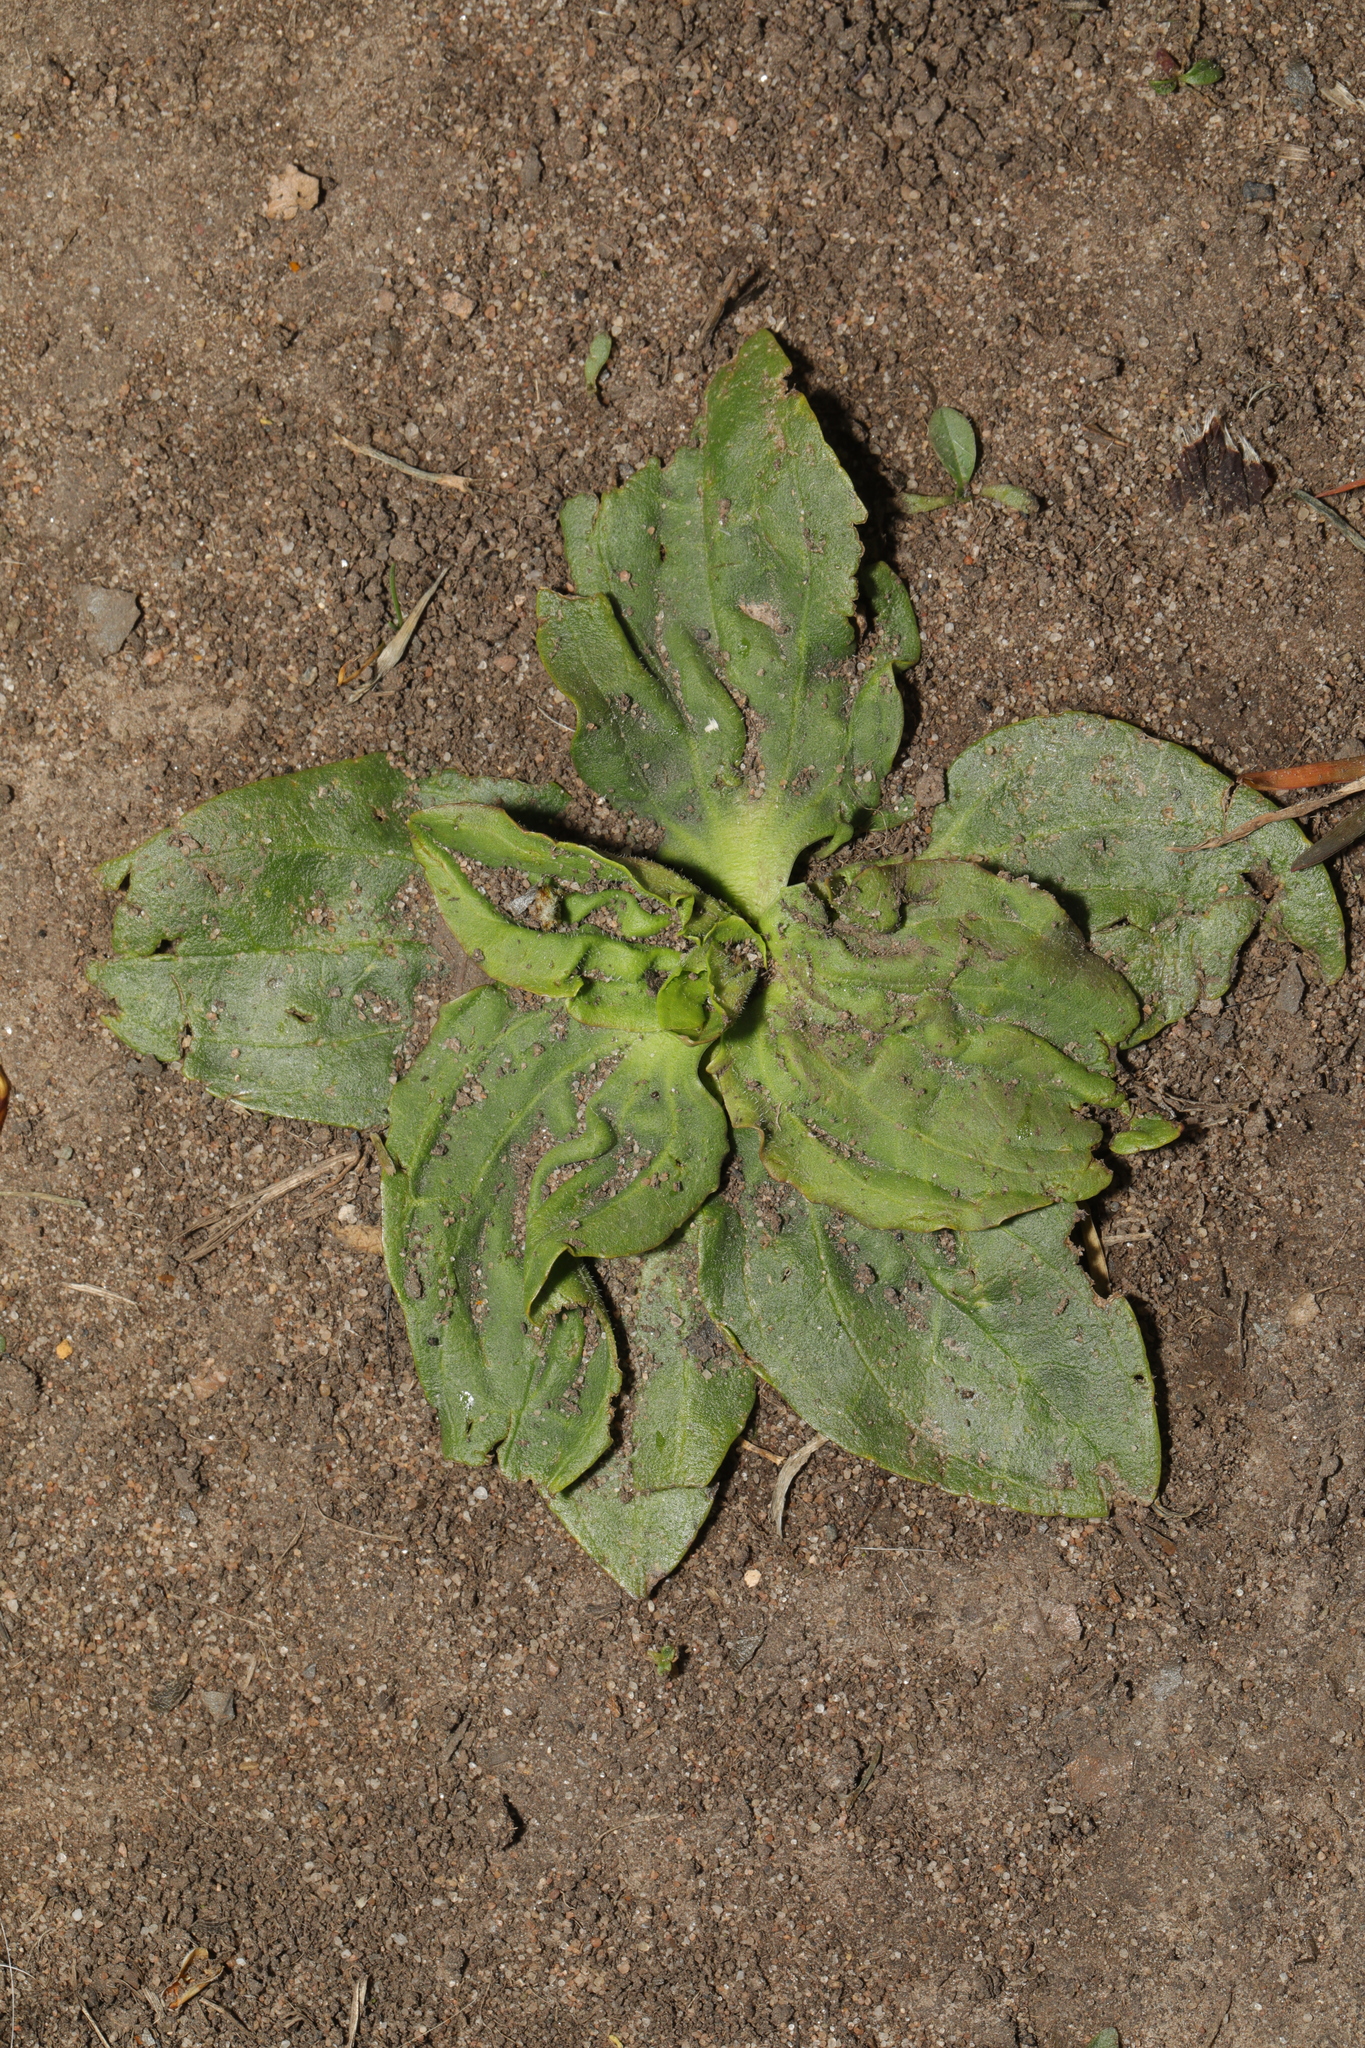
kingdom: Plantae
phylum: Tracheophyta
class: Magnoliopsida
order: Lamiales
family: Plantaginaceae
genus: Plantago
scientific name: Plantago major
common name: Common plantain
